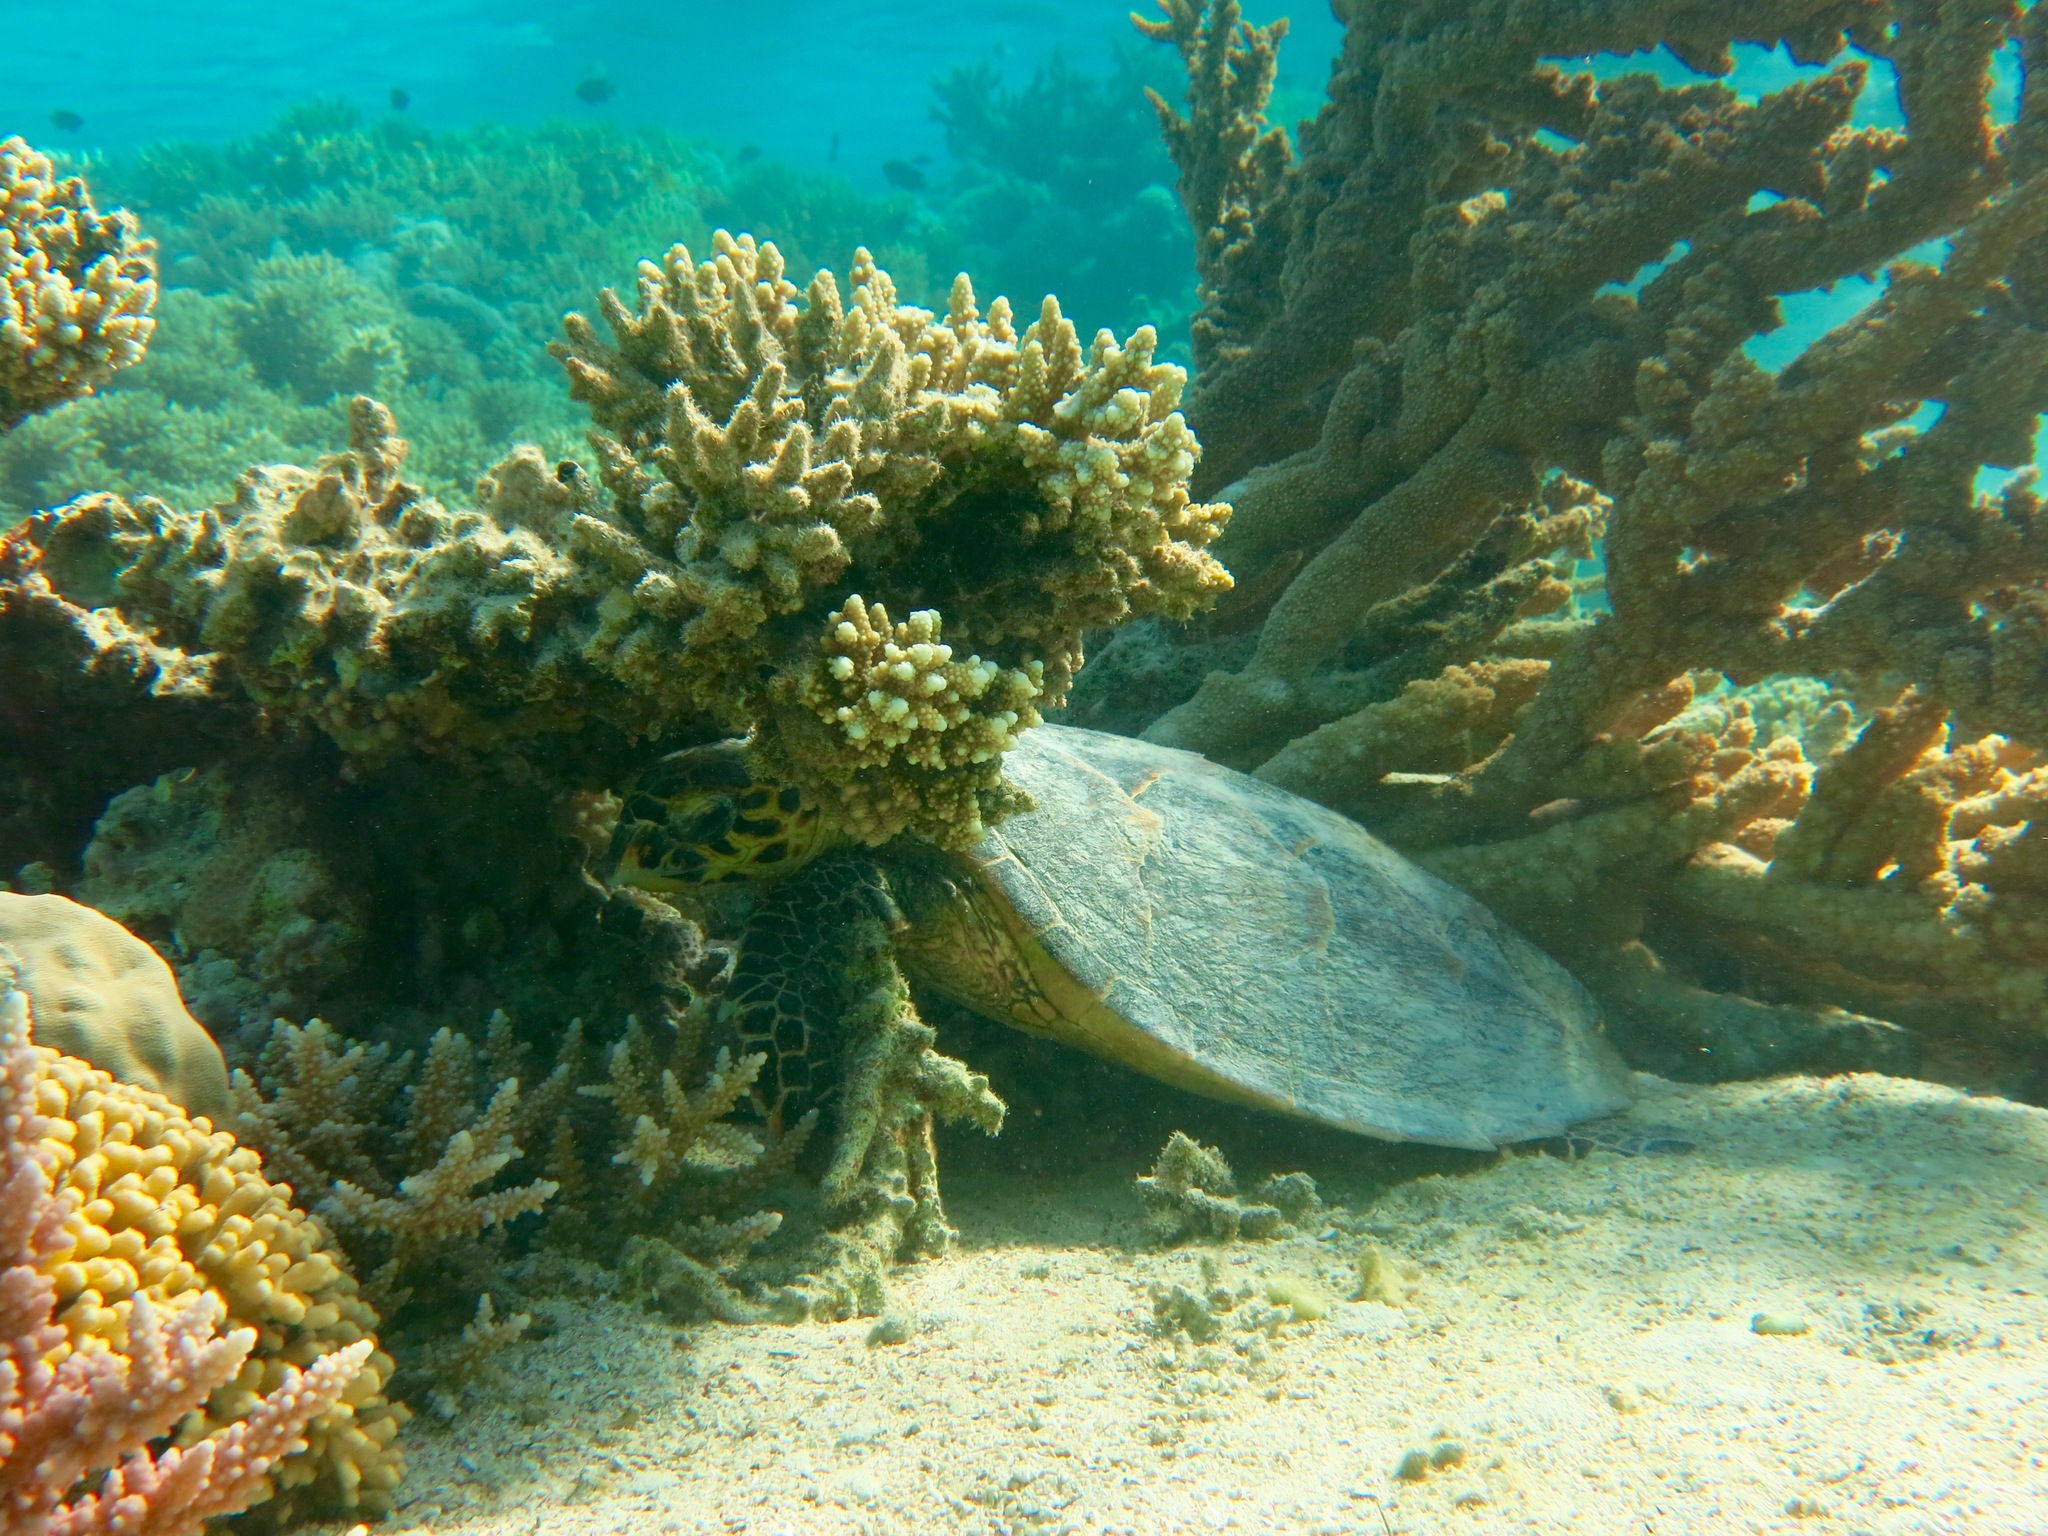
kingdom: Animalia
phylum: Chordata
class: Testudines
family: Cheloniidae
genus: Eretmochelys
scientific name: Eretmochelys imbricata
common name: Hawksbill turtle
